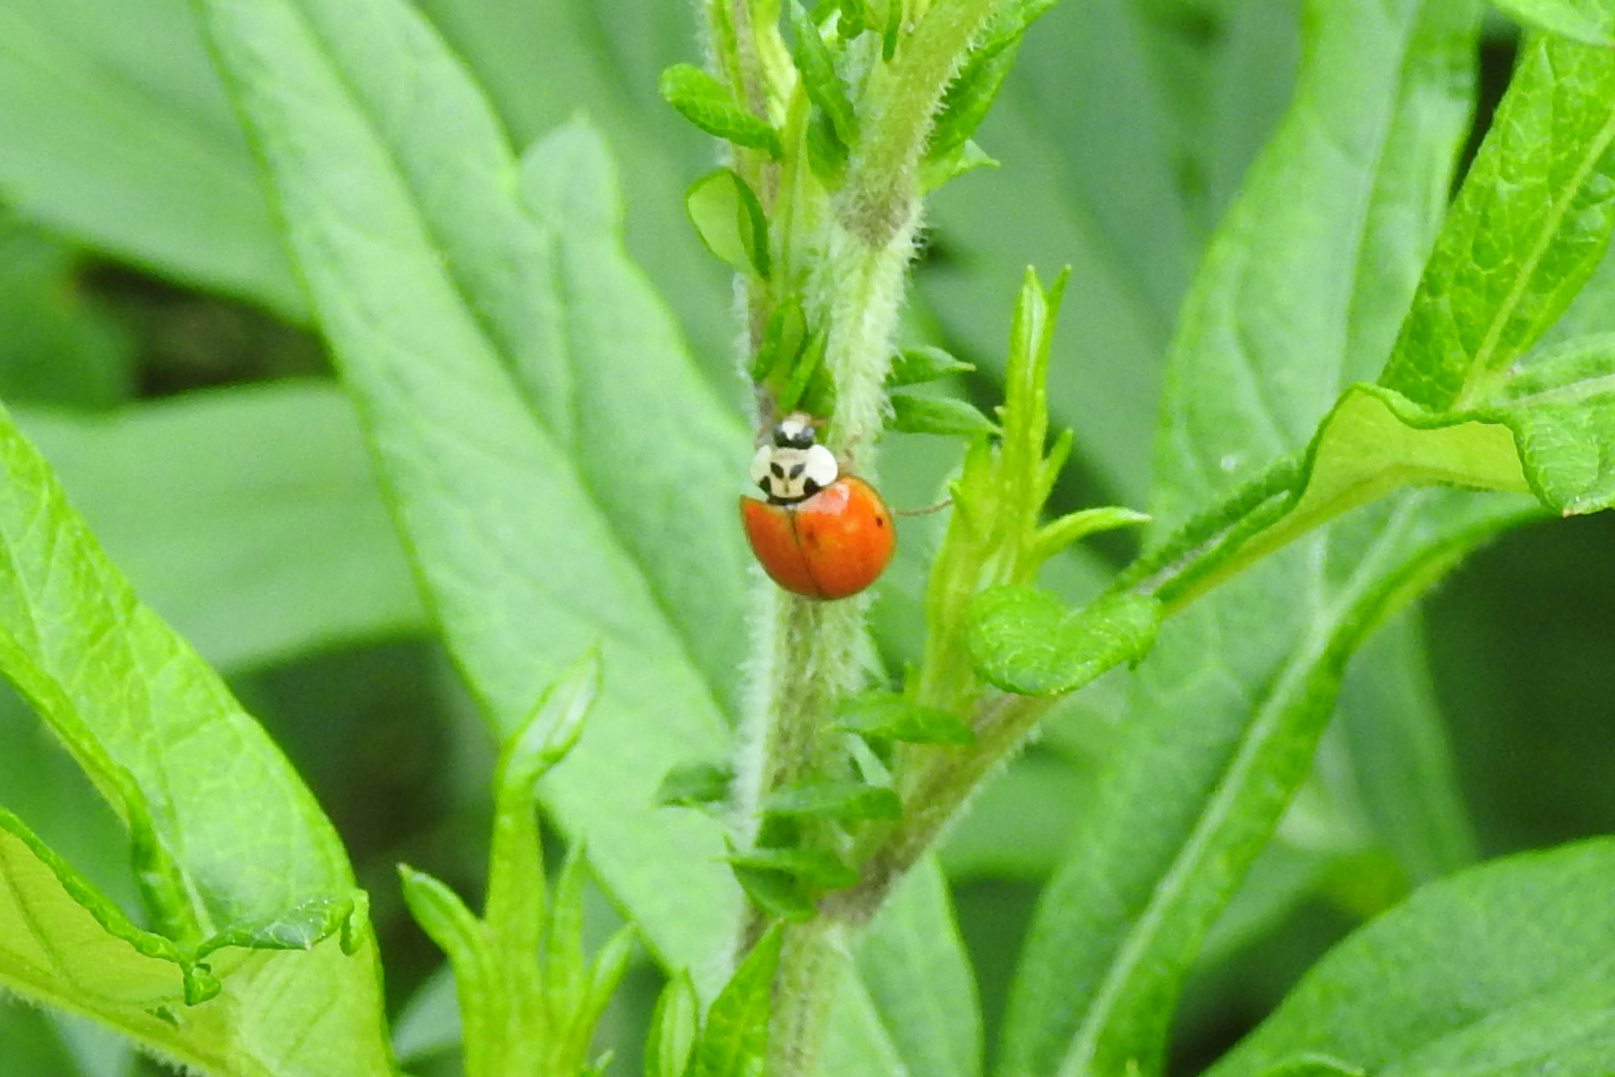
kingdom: Animalia
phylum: Arthropoda
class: Insecta
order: Coleoptera
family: Coccinellidae
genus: Harmonia
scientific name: Harmonia axyridis
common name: Harlequin ladybird
